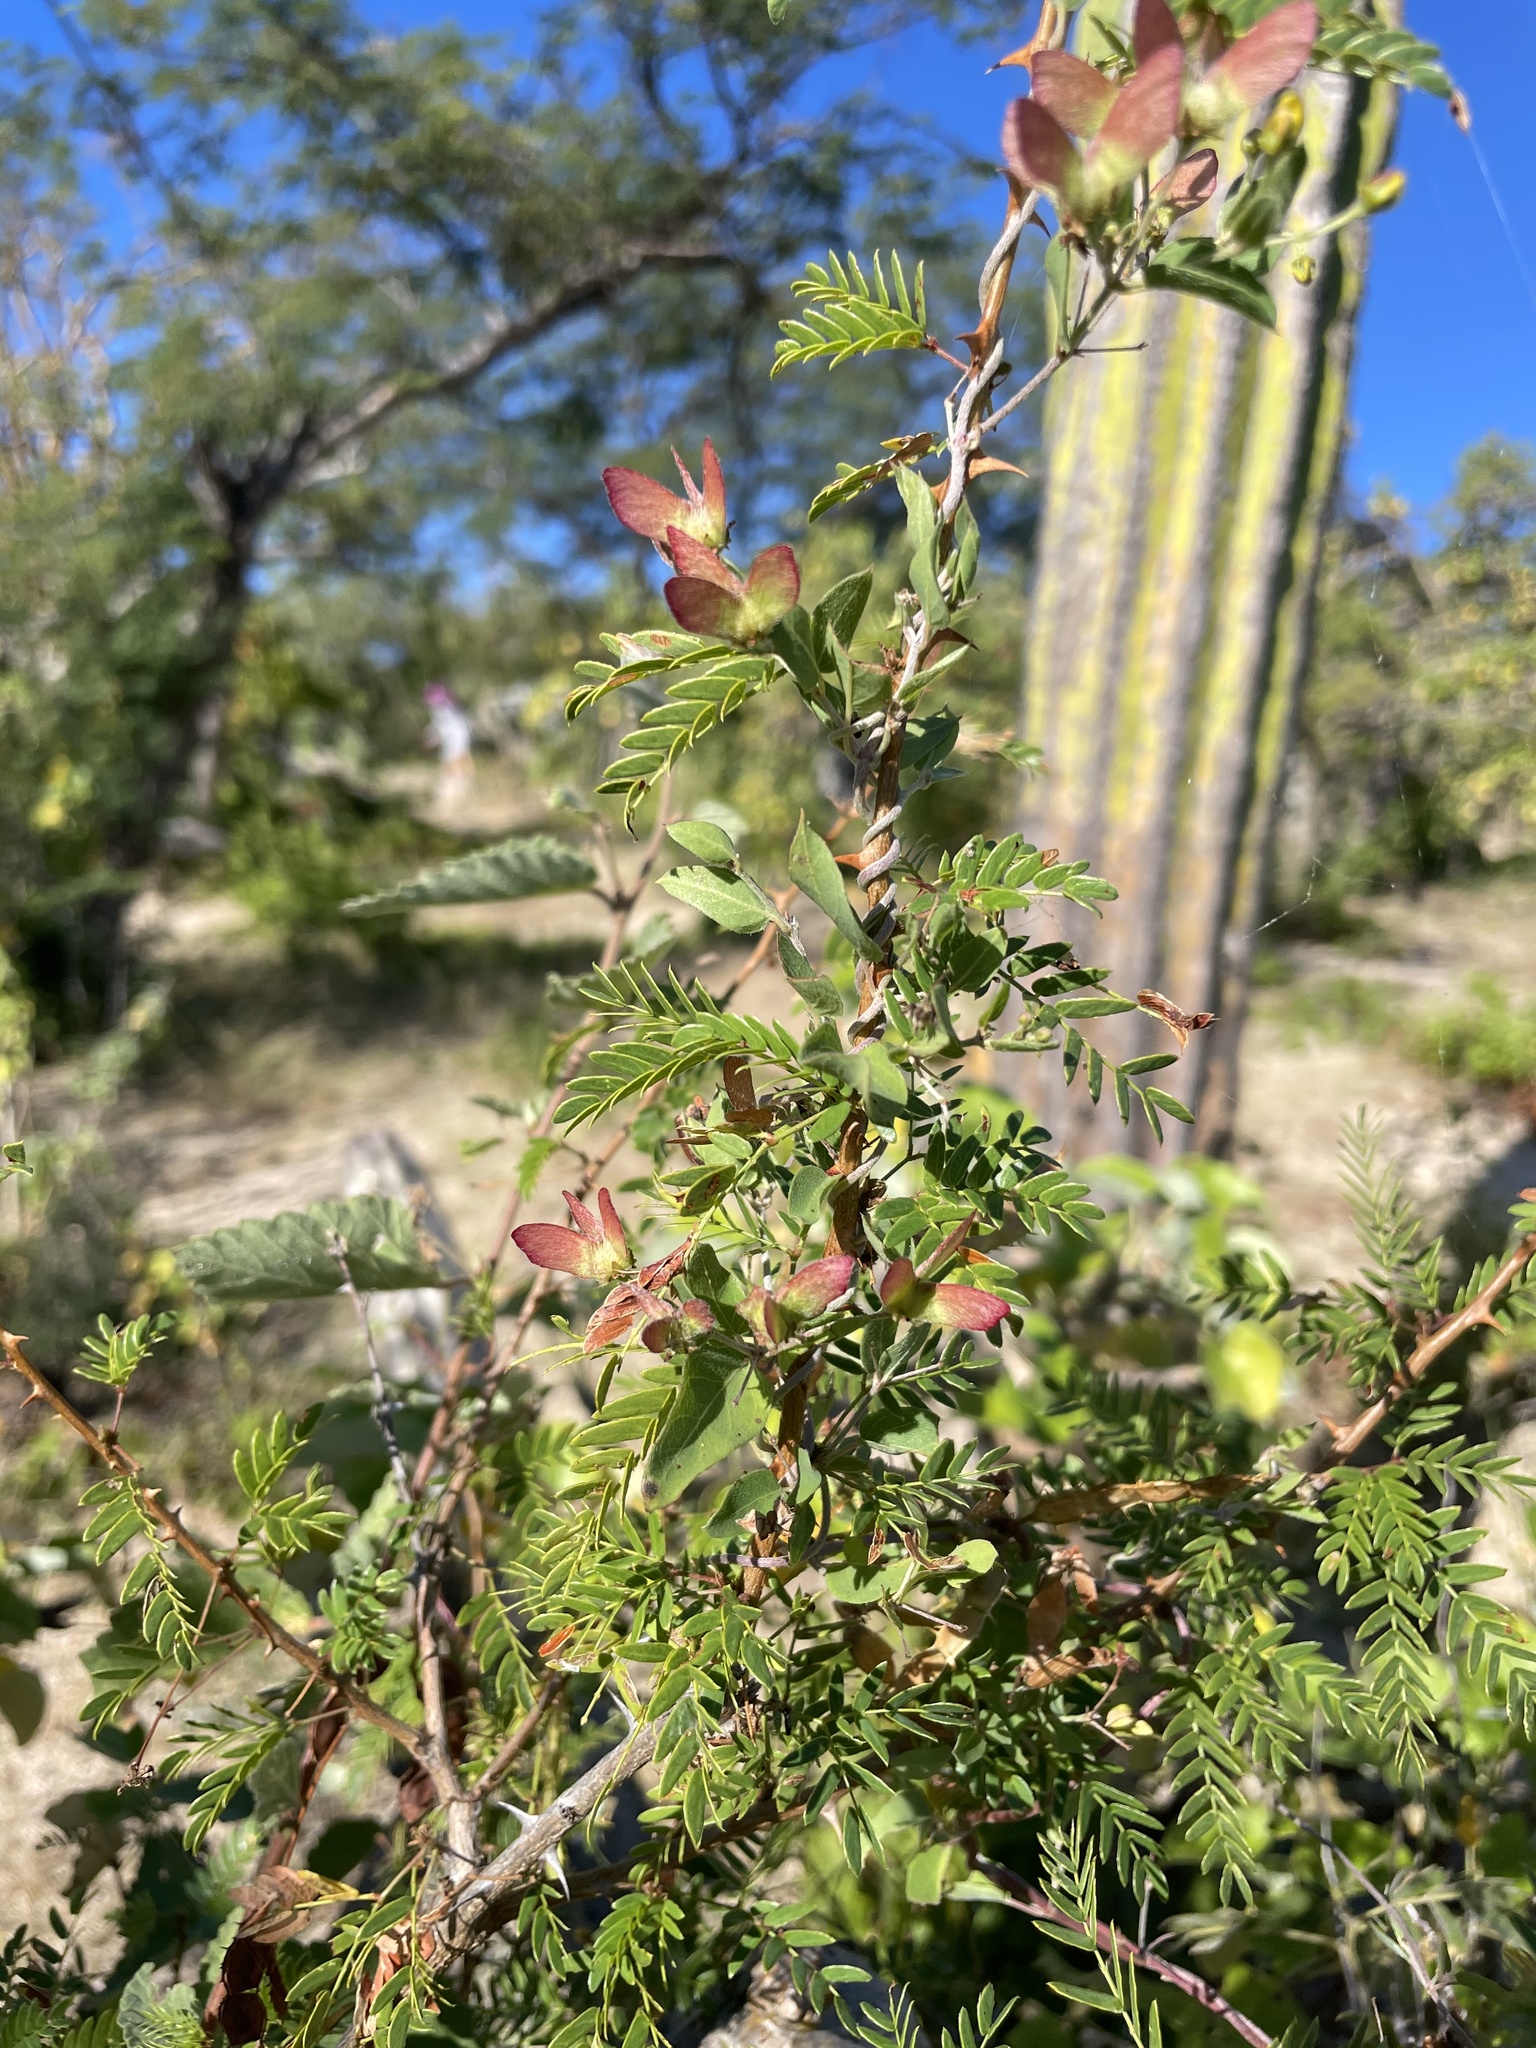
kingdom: Plantae
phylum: Tracheophyta
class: Magnoliopsida
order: Malpighiales
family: Malpighiaceae
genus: Cottsia
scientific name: Cottsia californica
